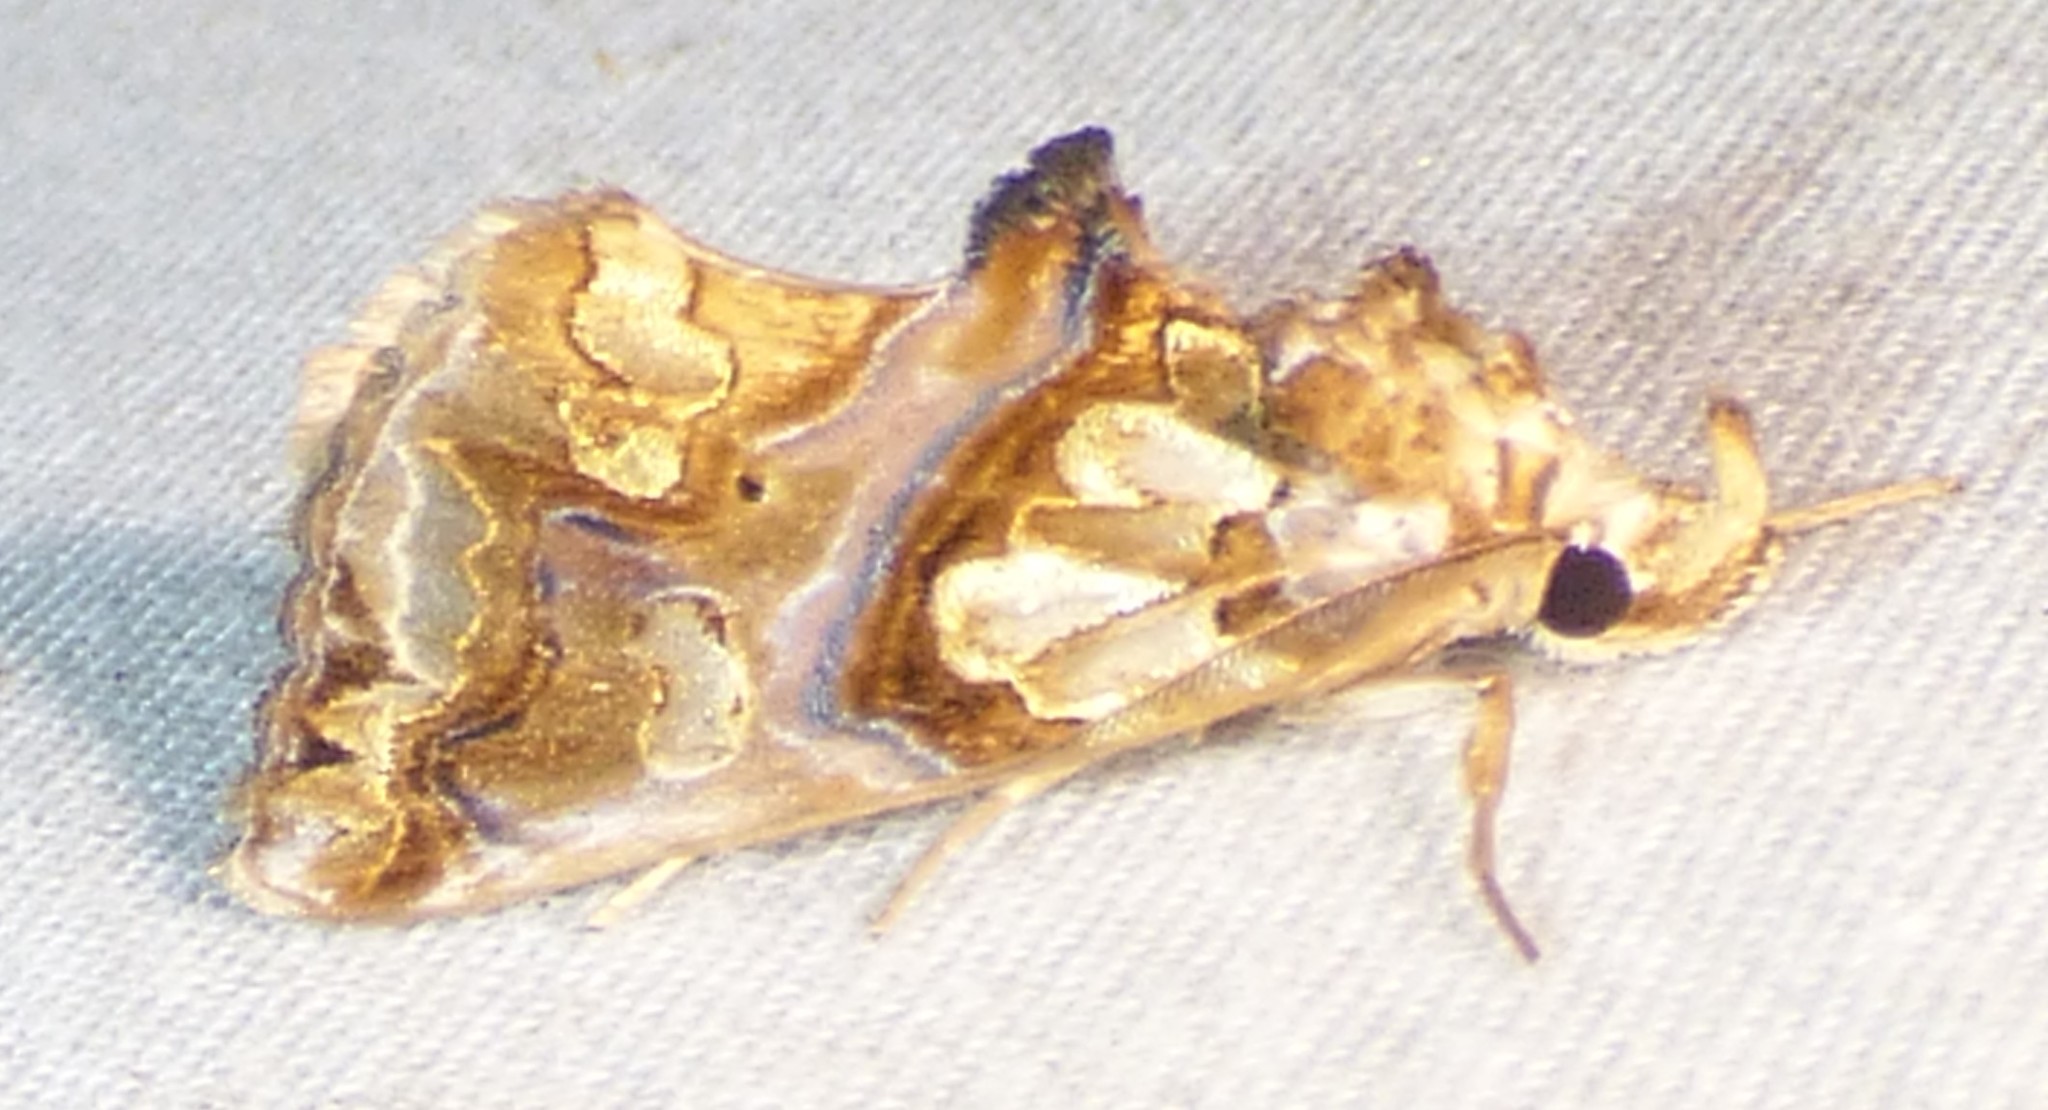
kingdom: Animalia
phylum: Arthropoda
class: Insecta
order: Lepidoptera
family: Erebidae
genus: Plusiodonta
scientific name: Plusiodonta compressipalpis
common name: Moonseed moth
